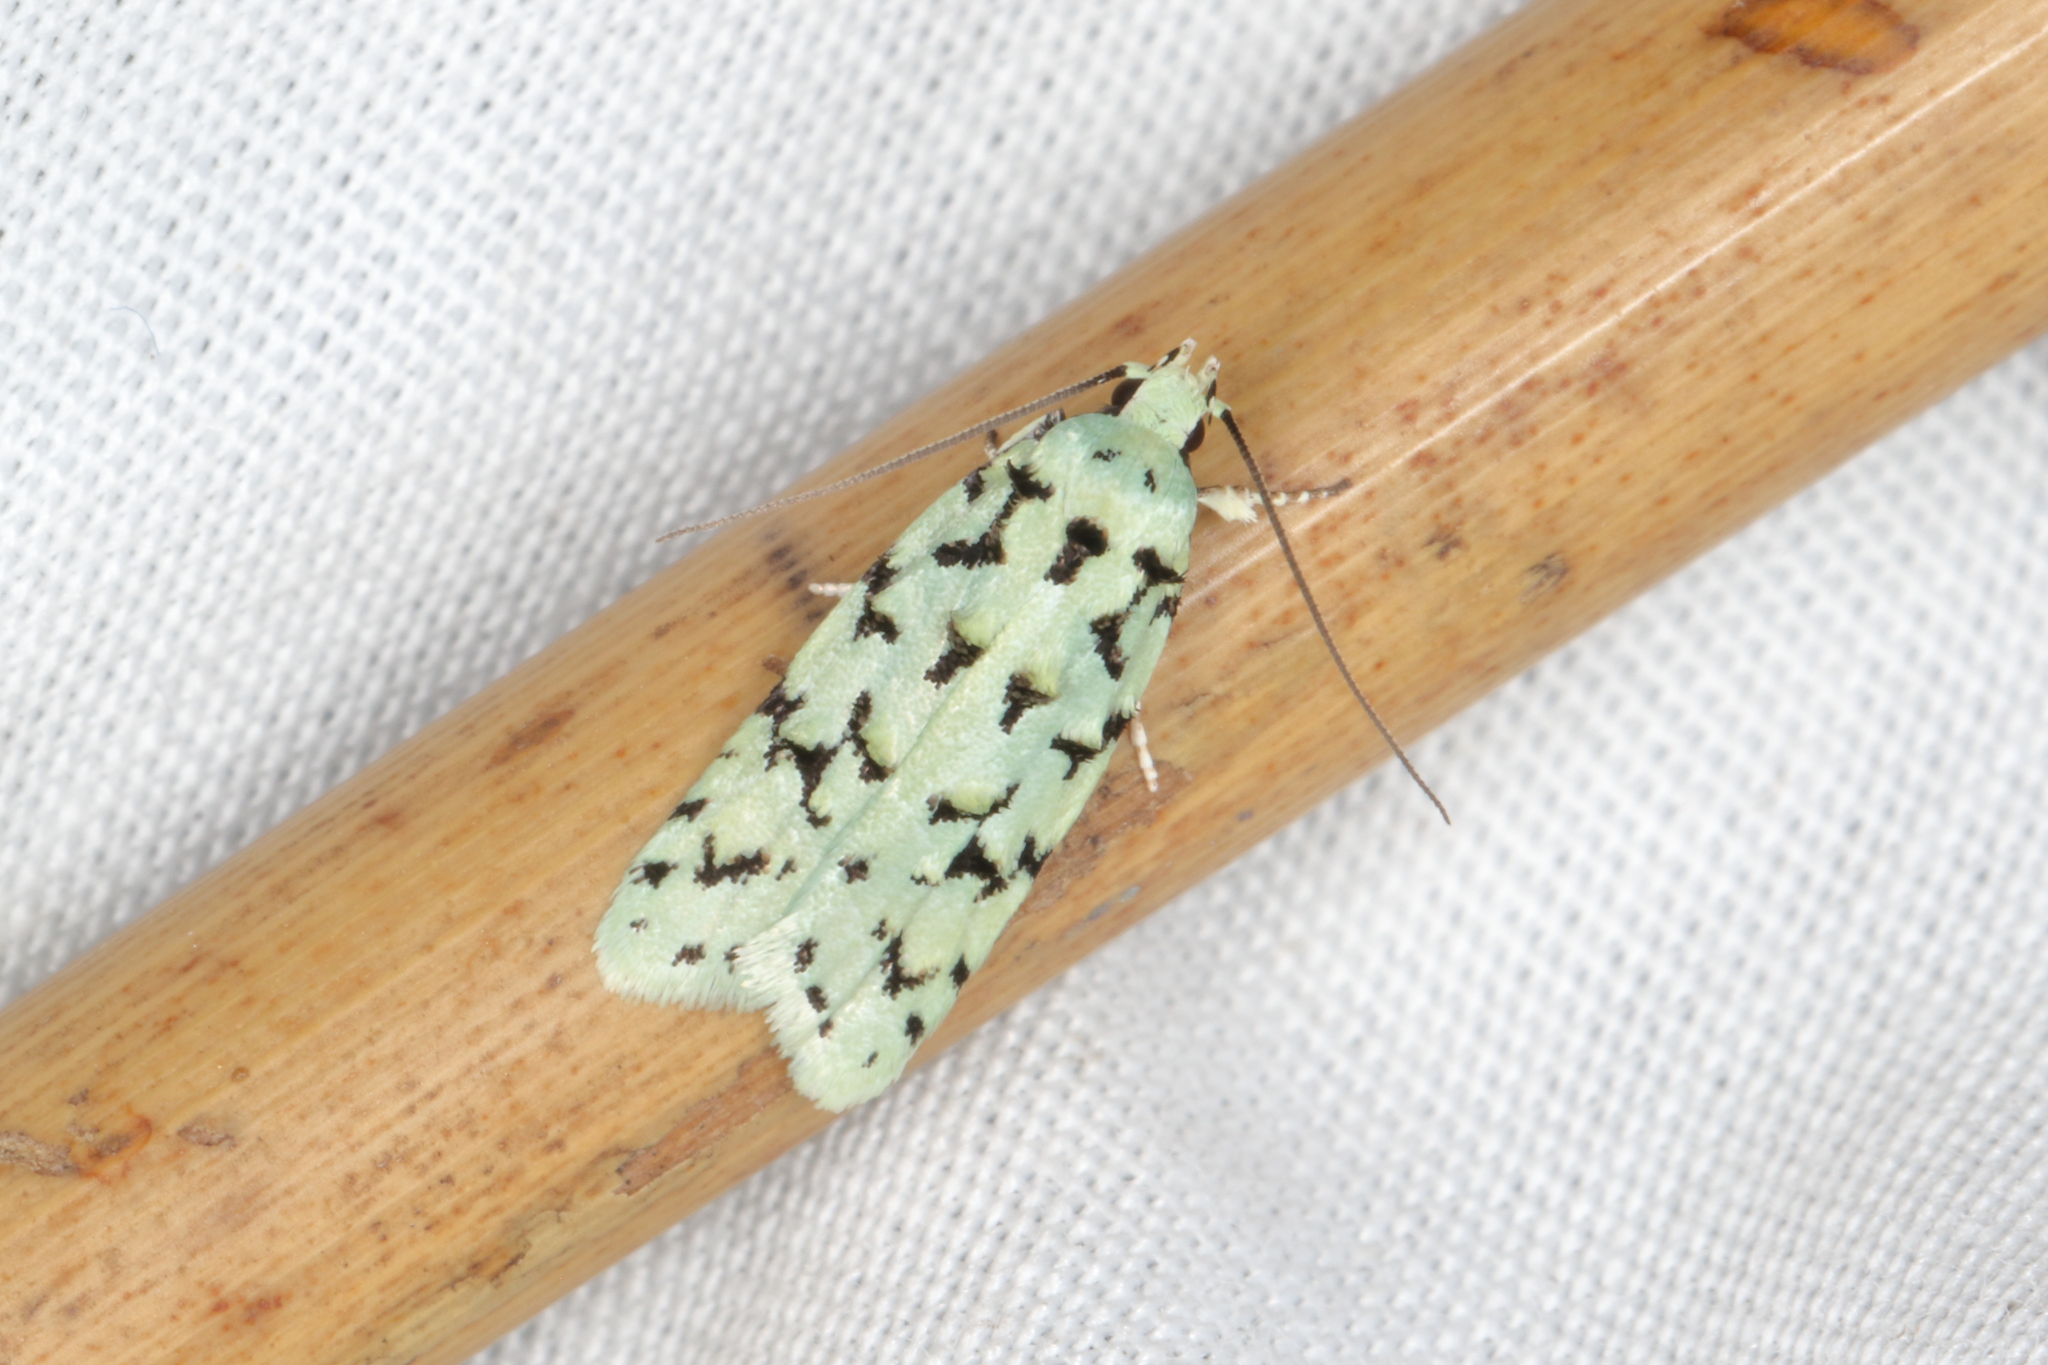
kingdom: Animalia
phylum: Arthropoda
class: Insecta
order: Lepidoptera
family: Oecophoridae
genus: Izatha
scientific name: Izatha huttoni
